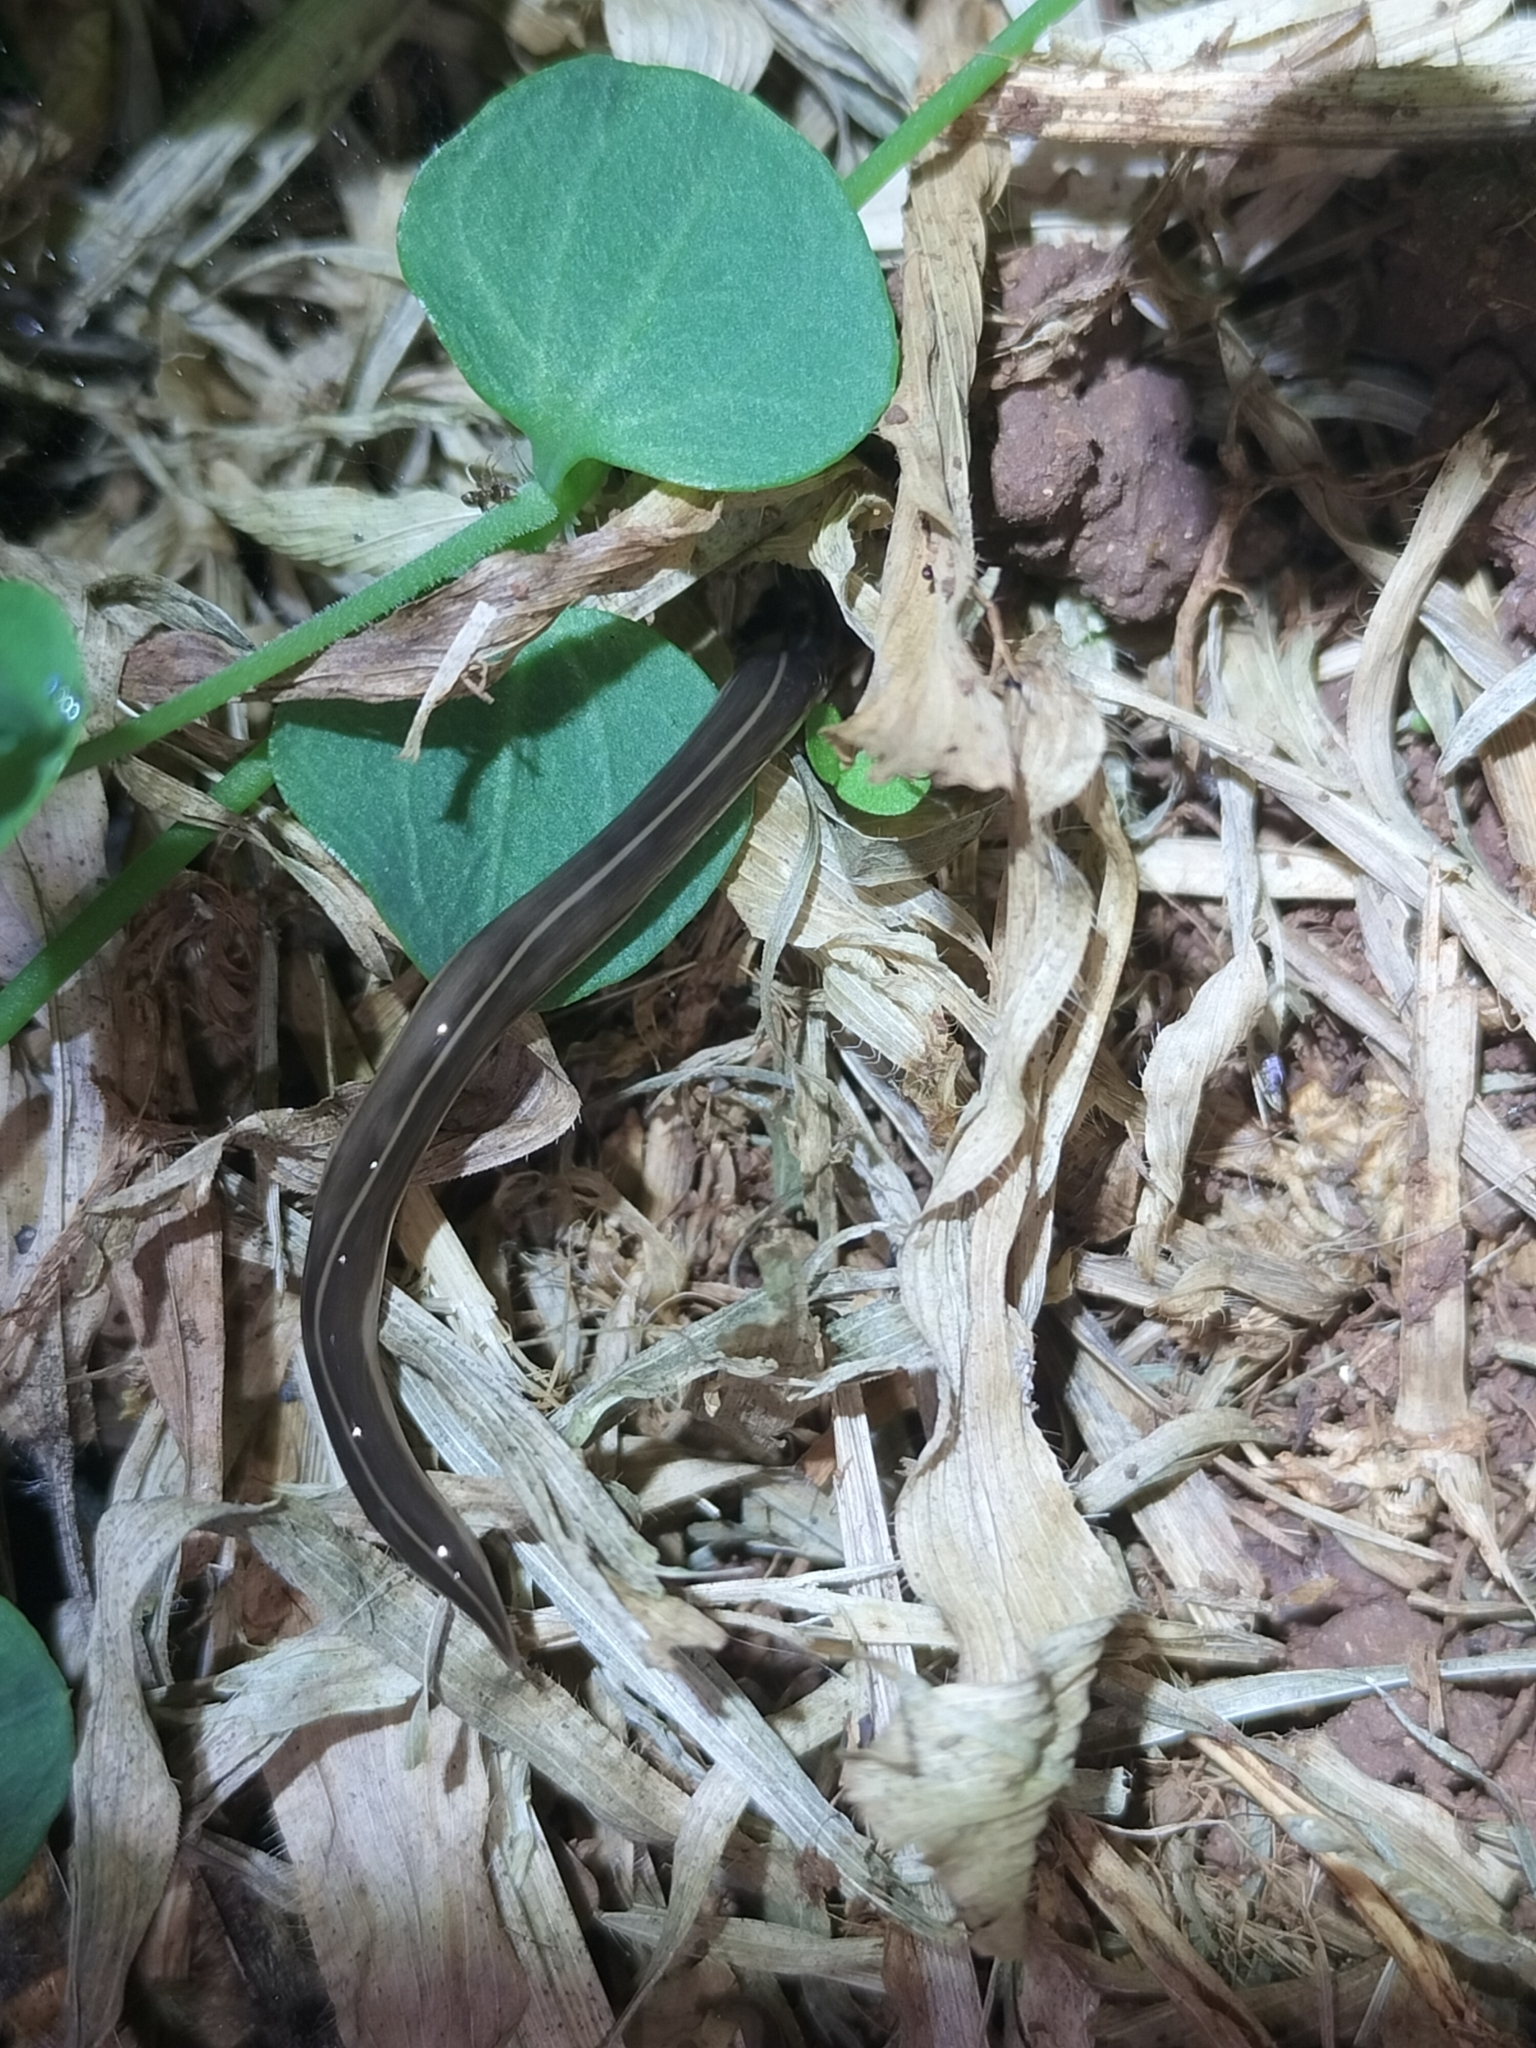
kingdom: Animalia
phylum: Platyhelminthes
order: Tricladida
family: Geoplanidae
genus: Platydemus
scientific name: Platydemus manokwari
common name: New guinea flatworm
